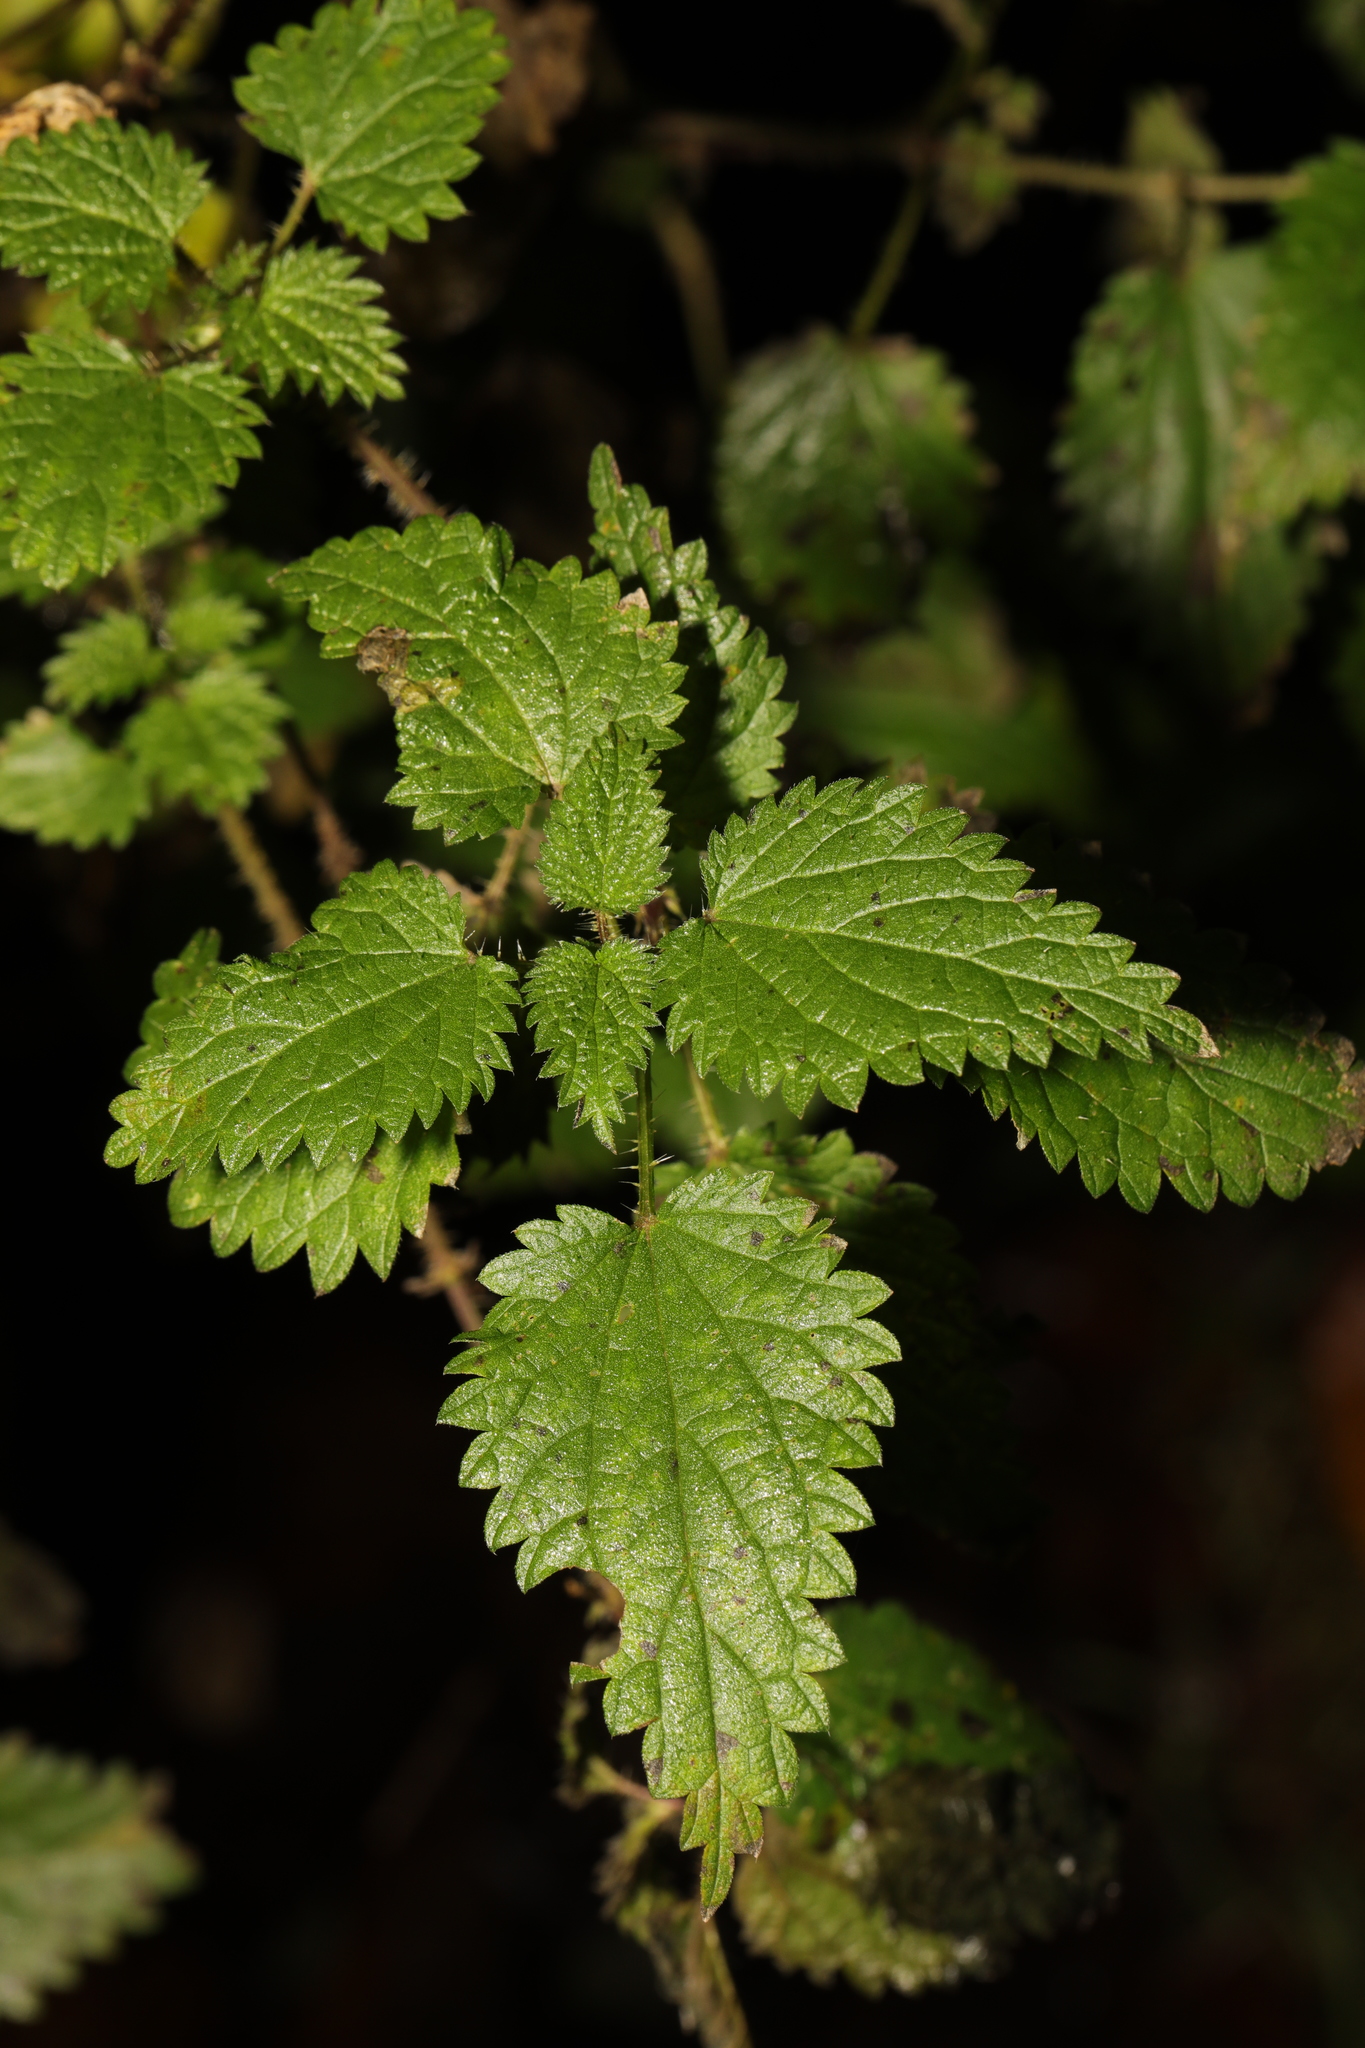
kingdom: Plantae
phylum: Tracheophyta
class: Magnoliopsida
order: Rosales
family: Urticaceae
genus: Urtica
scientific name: Urtica dioica
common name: Common nettle
